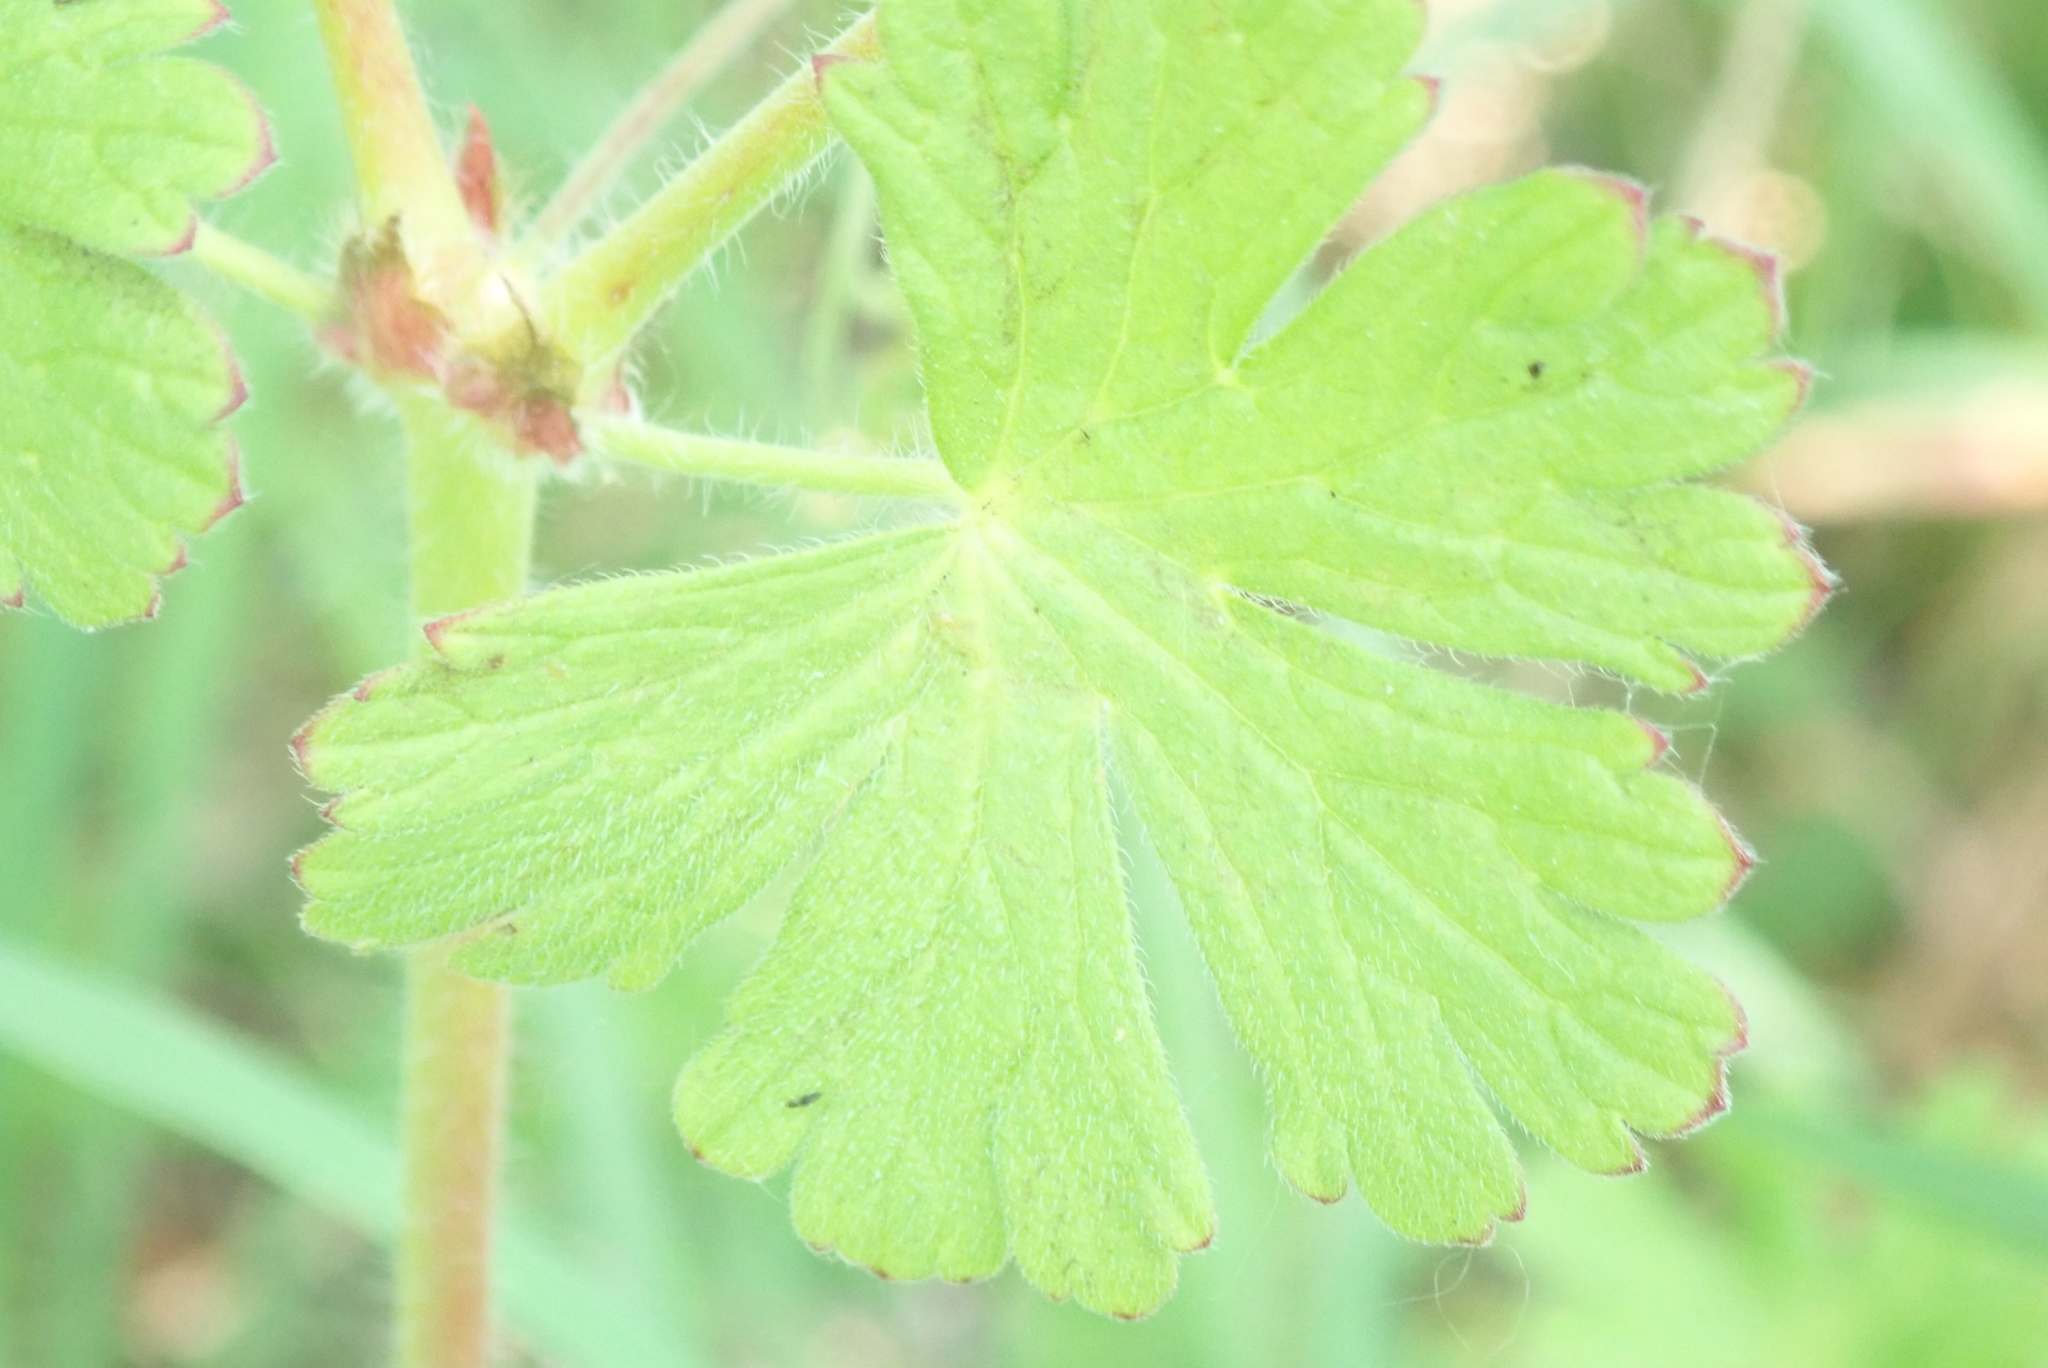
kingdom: Plantae
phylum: Tracheophyta
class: Magnoliopsida
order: Geraniales
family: Geraniaceae
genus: Geranium
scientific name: Geranium molle
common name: Dove's-foot crane's-bill
